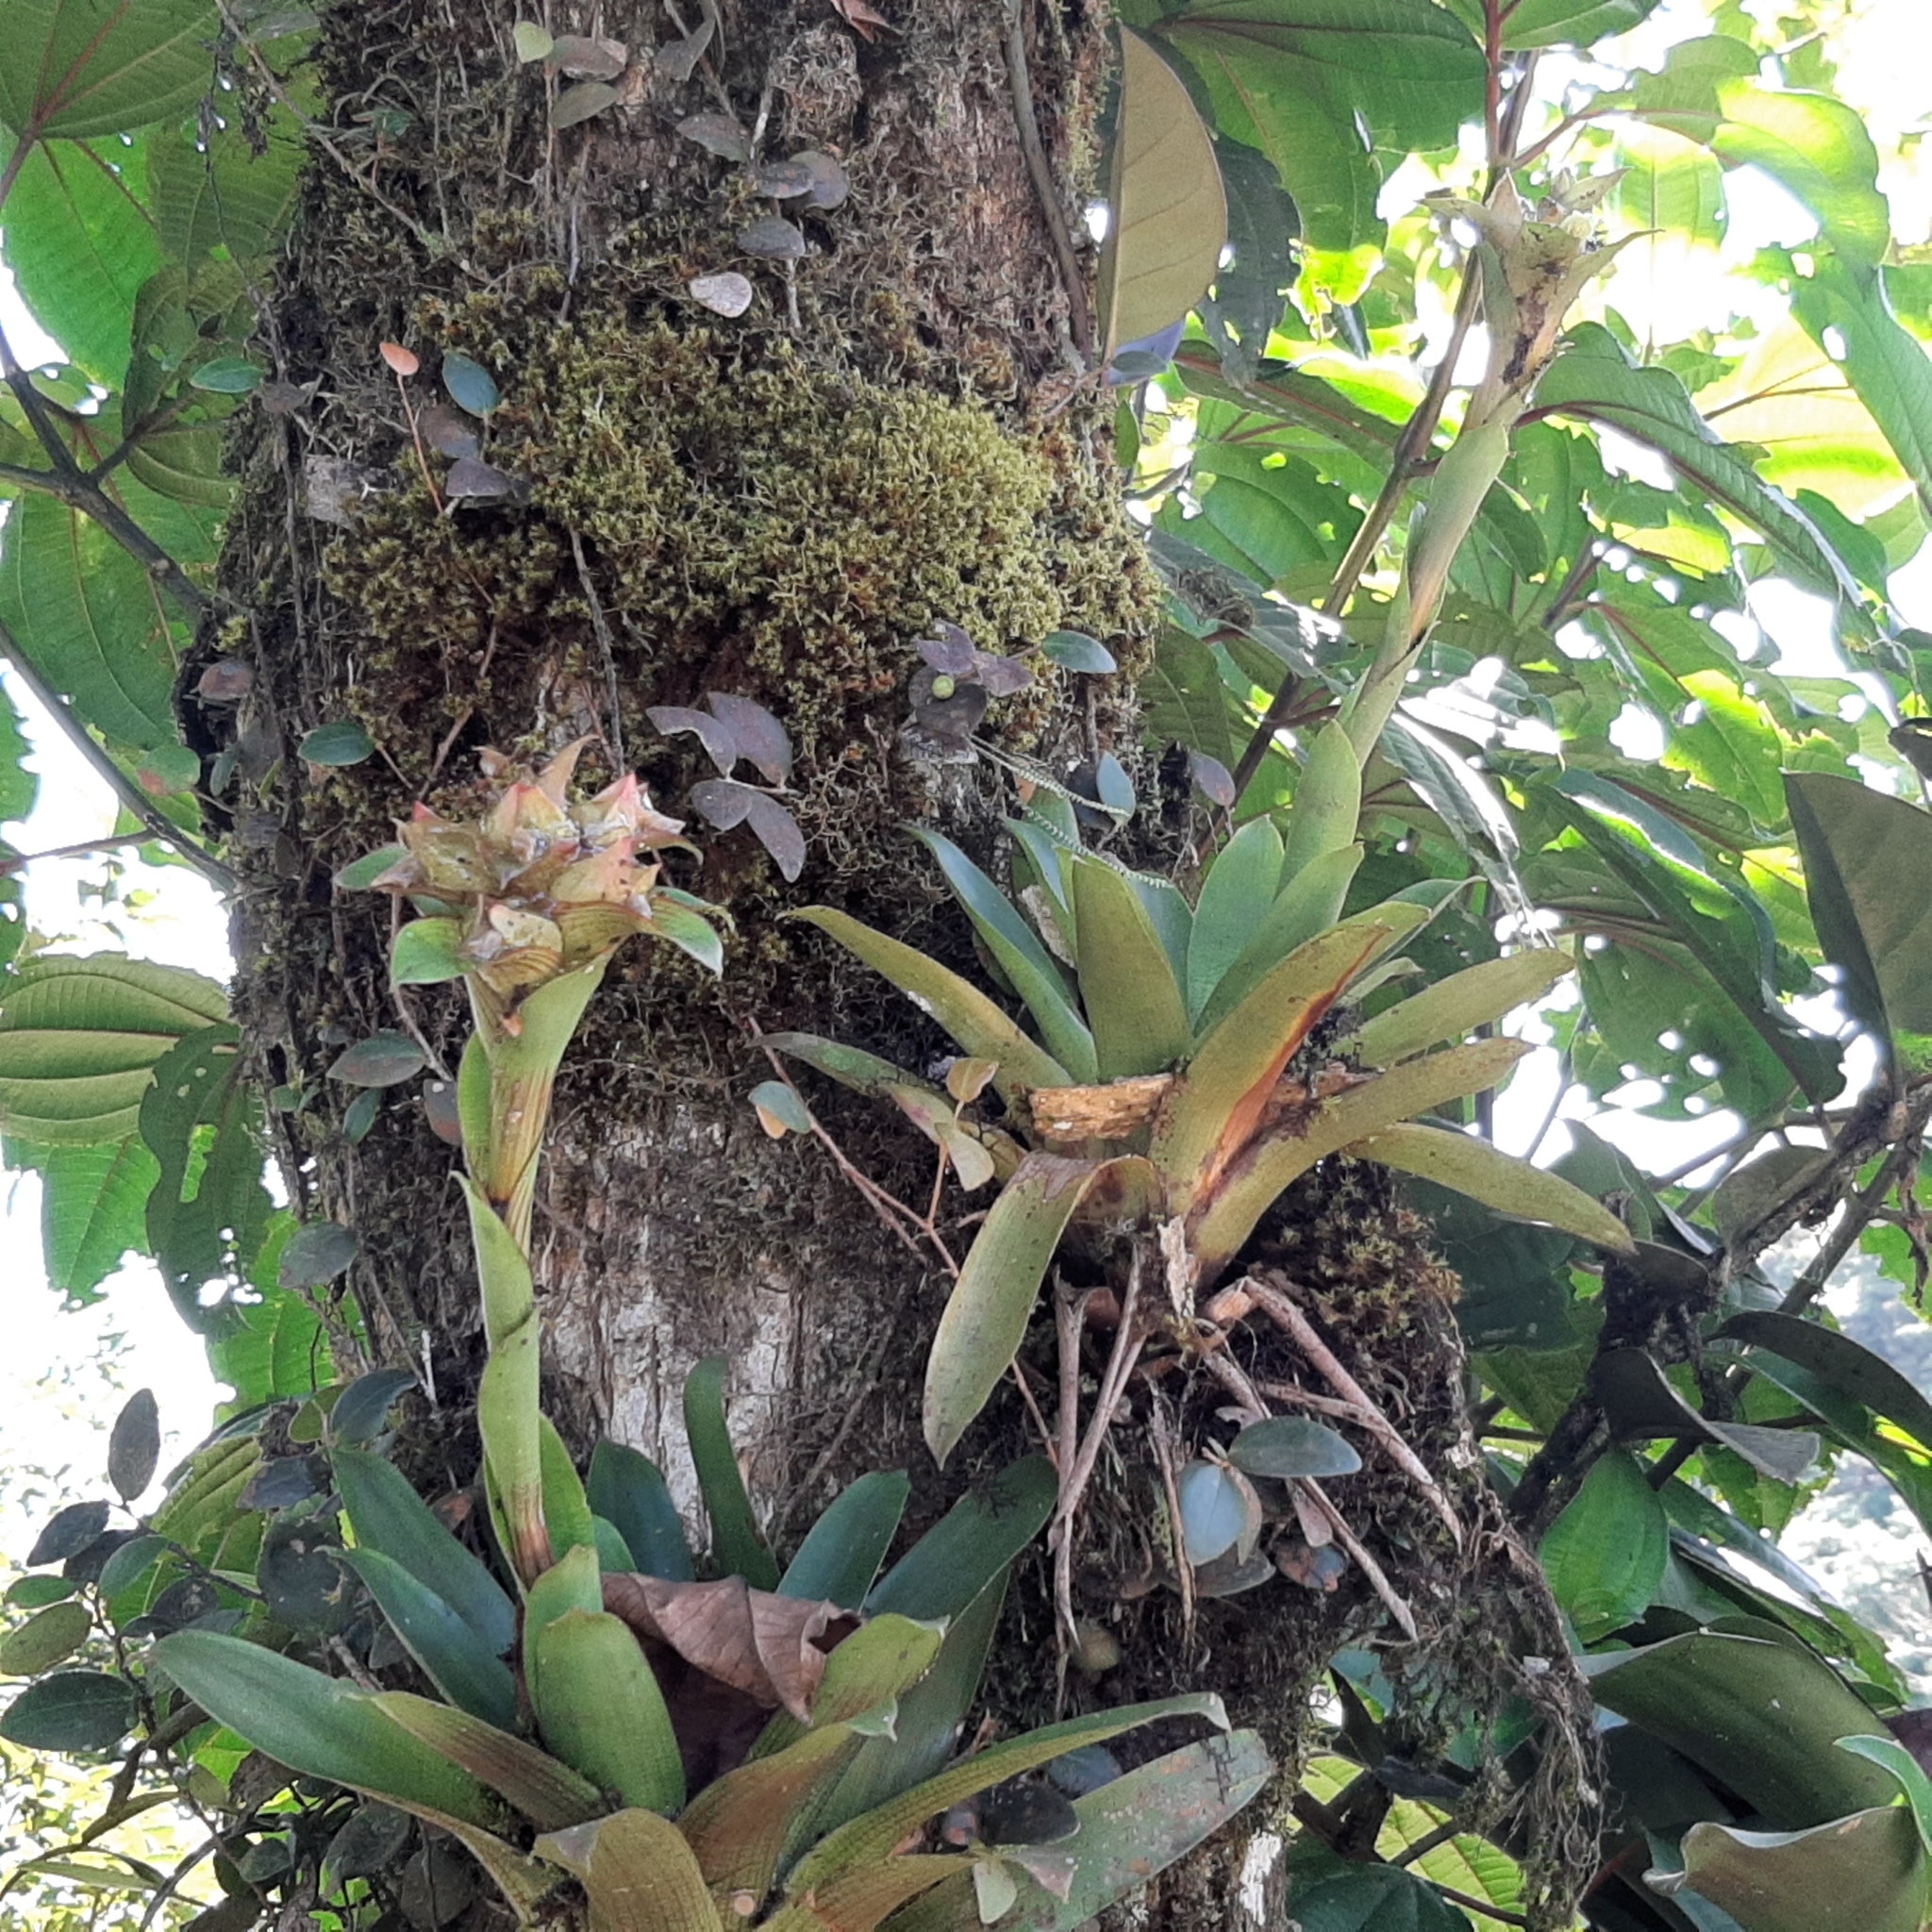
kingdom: Plantae
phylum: Tracheophyta
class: Liliopsida
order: Poales
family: Bromeliaceae
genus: Werauhia
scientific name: Werauhia notata
